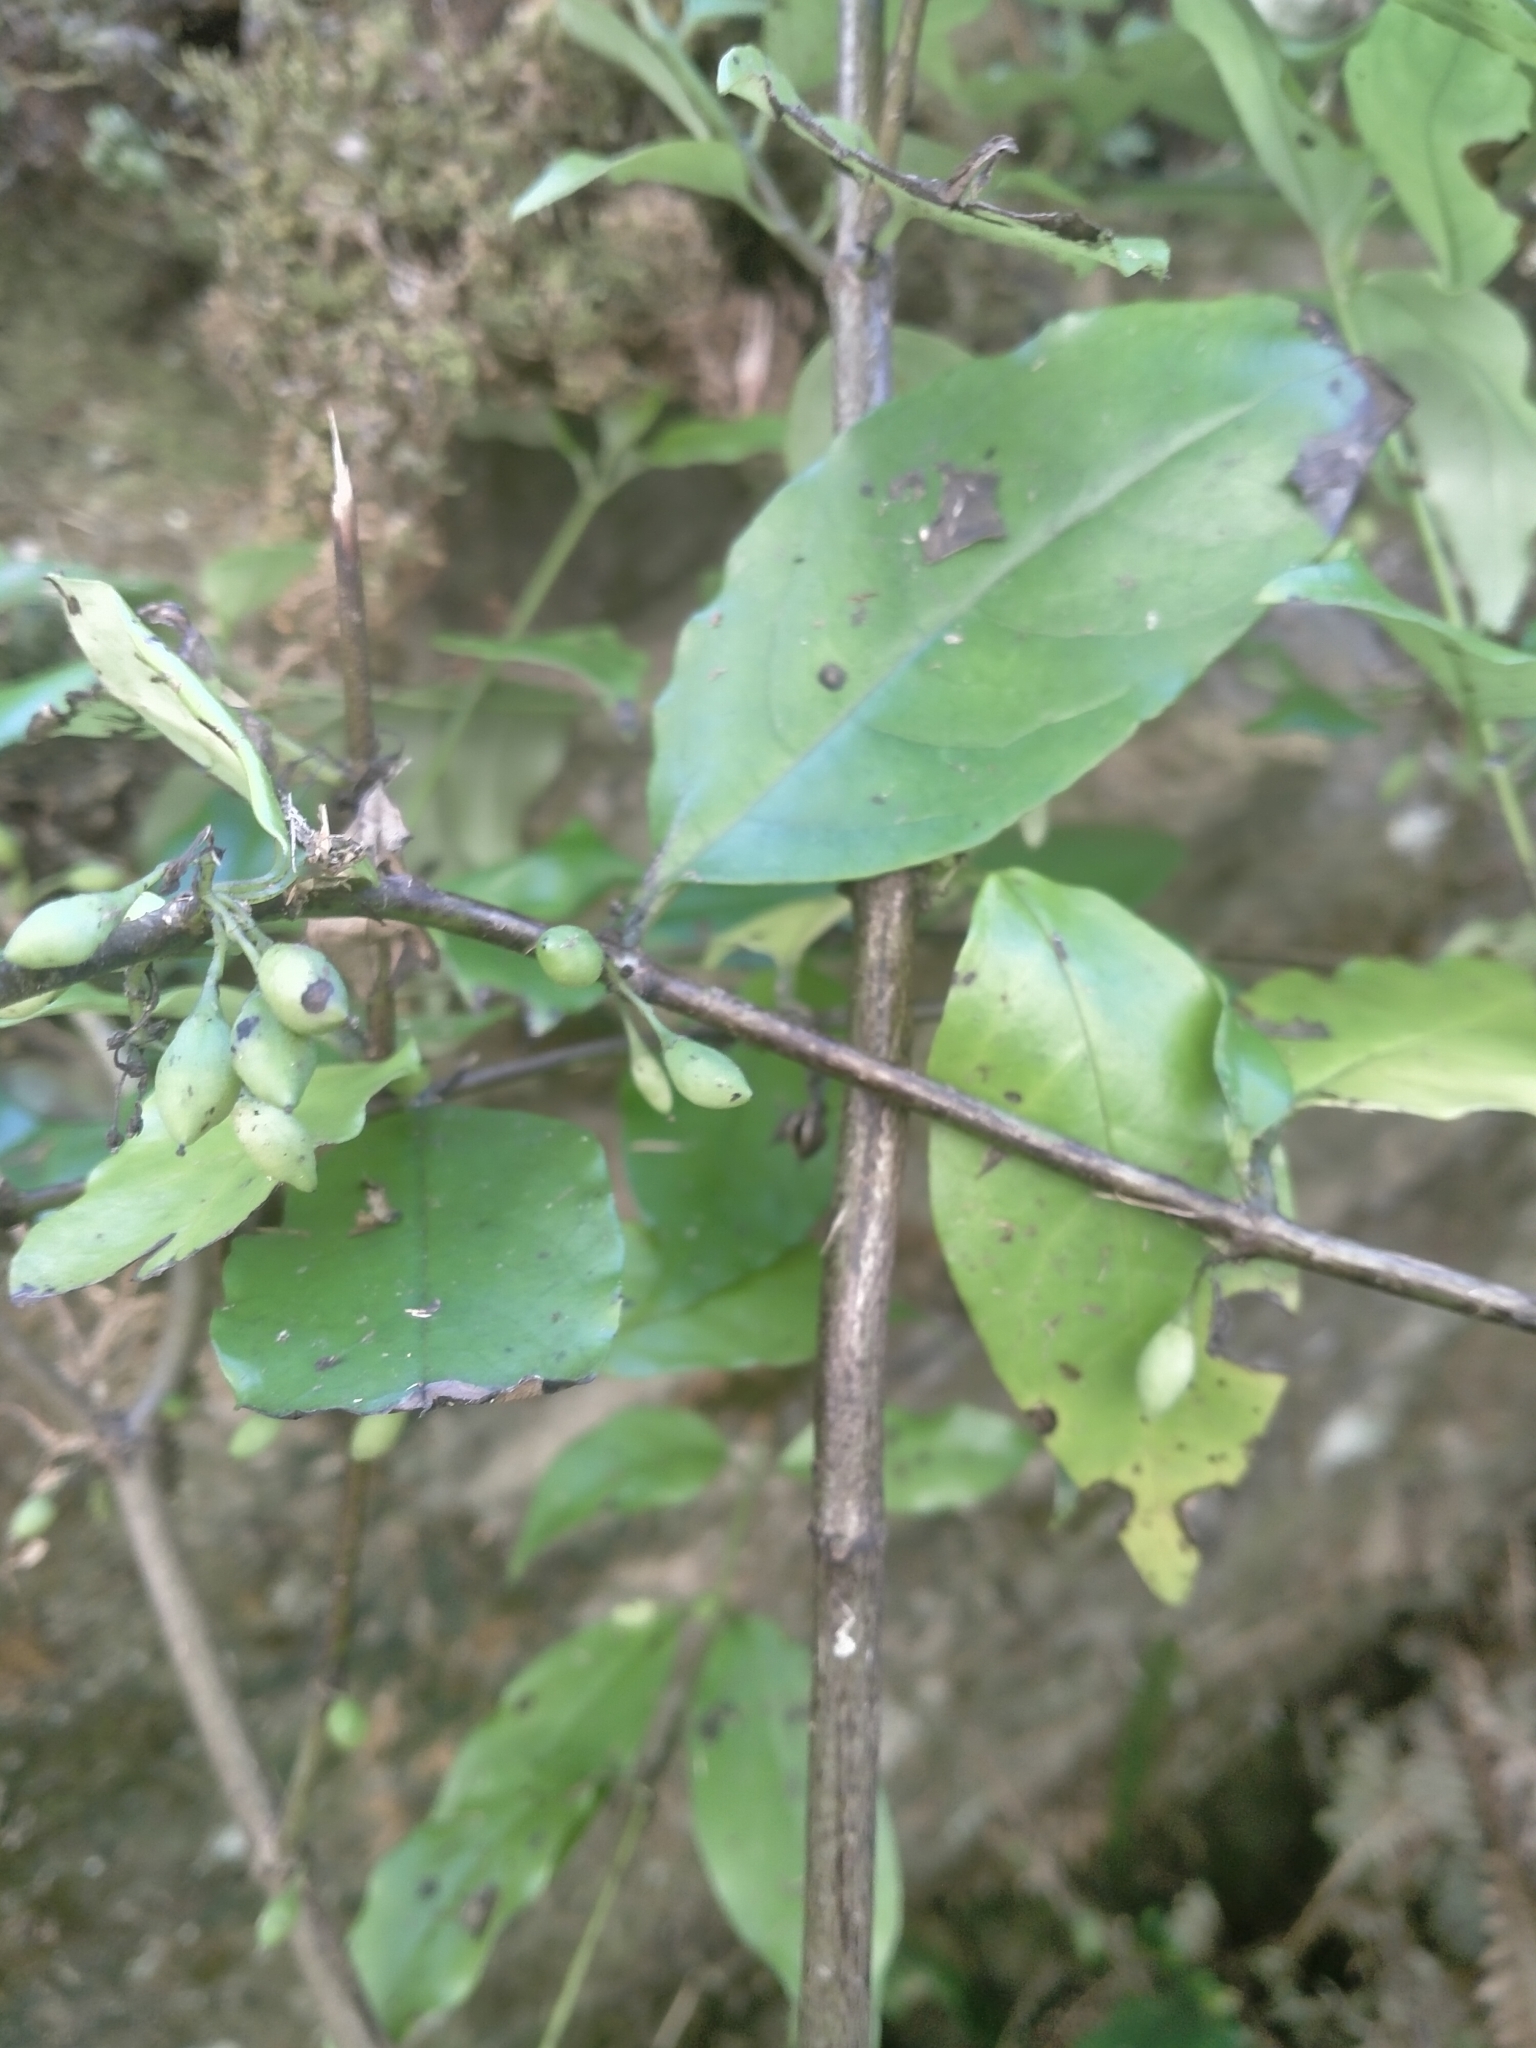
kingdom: Plantae
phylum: Tracheophyta
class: Magnoliopsida
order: Gentianales
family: Loganiaceae
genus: Geniostoma
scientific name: Geniostoma ligustrifolium
